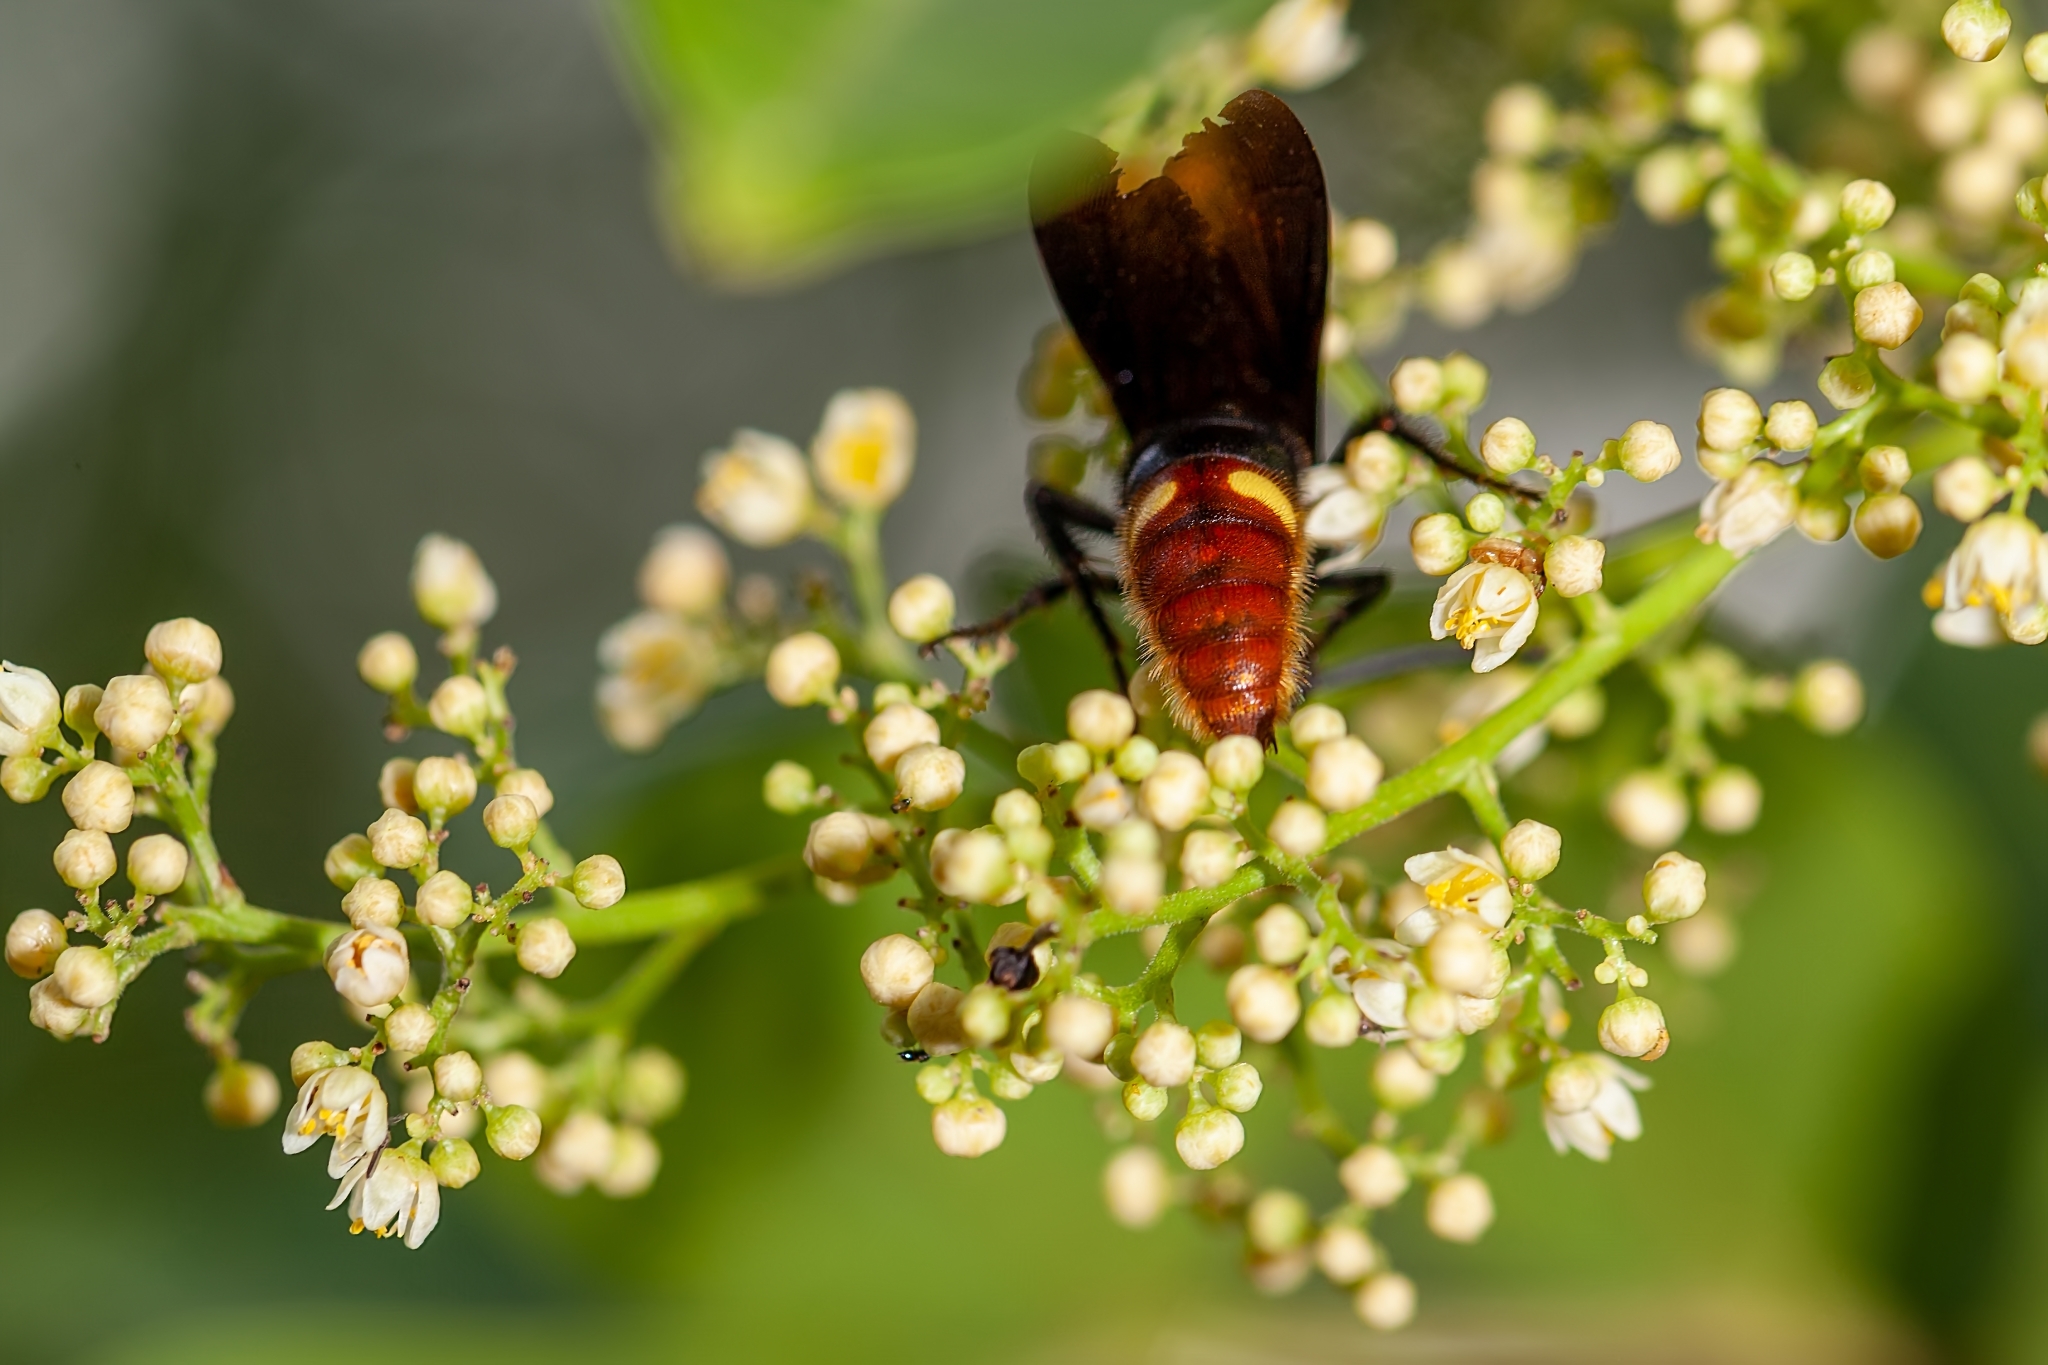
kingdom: Animalia
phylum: Arthropoda
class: Insecta
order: Hymenoptera
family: Scoliidae
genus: Scolia
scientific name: Scolia dubia
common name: Blue-winged scoliid wasp
